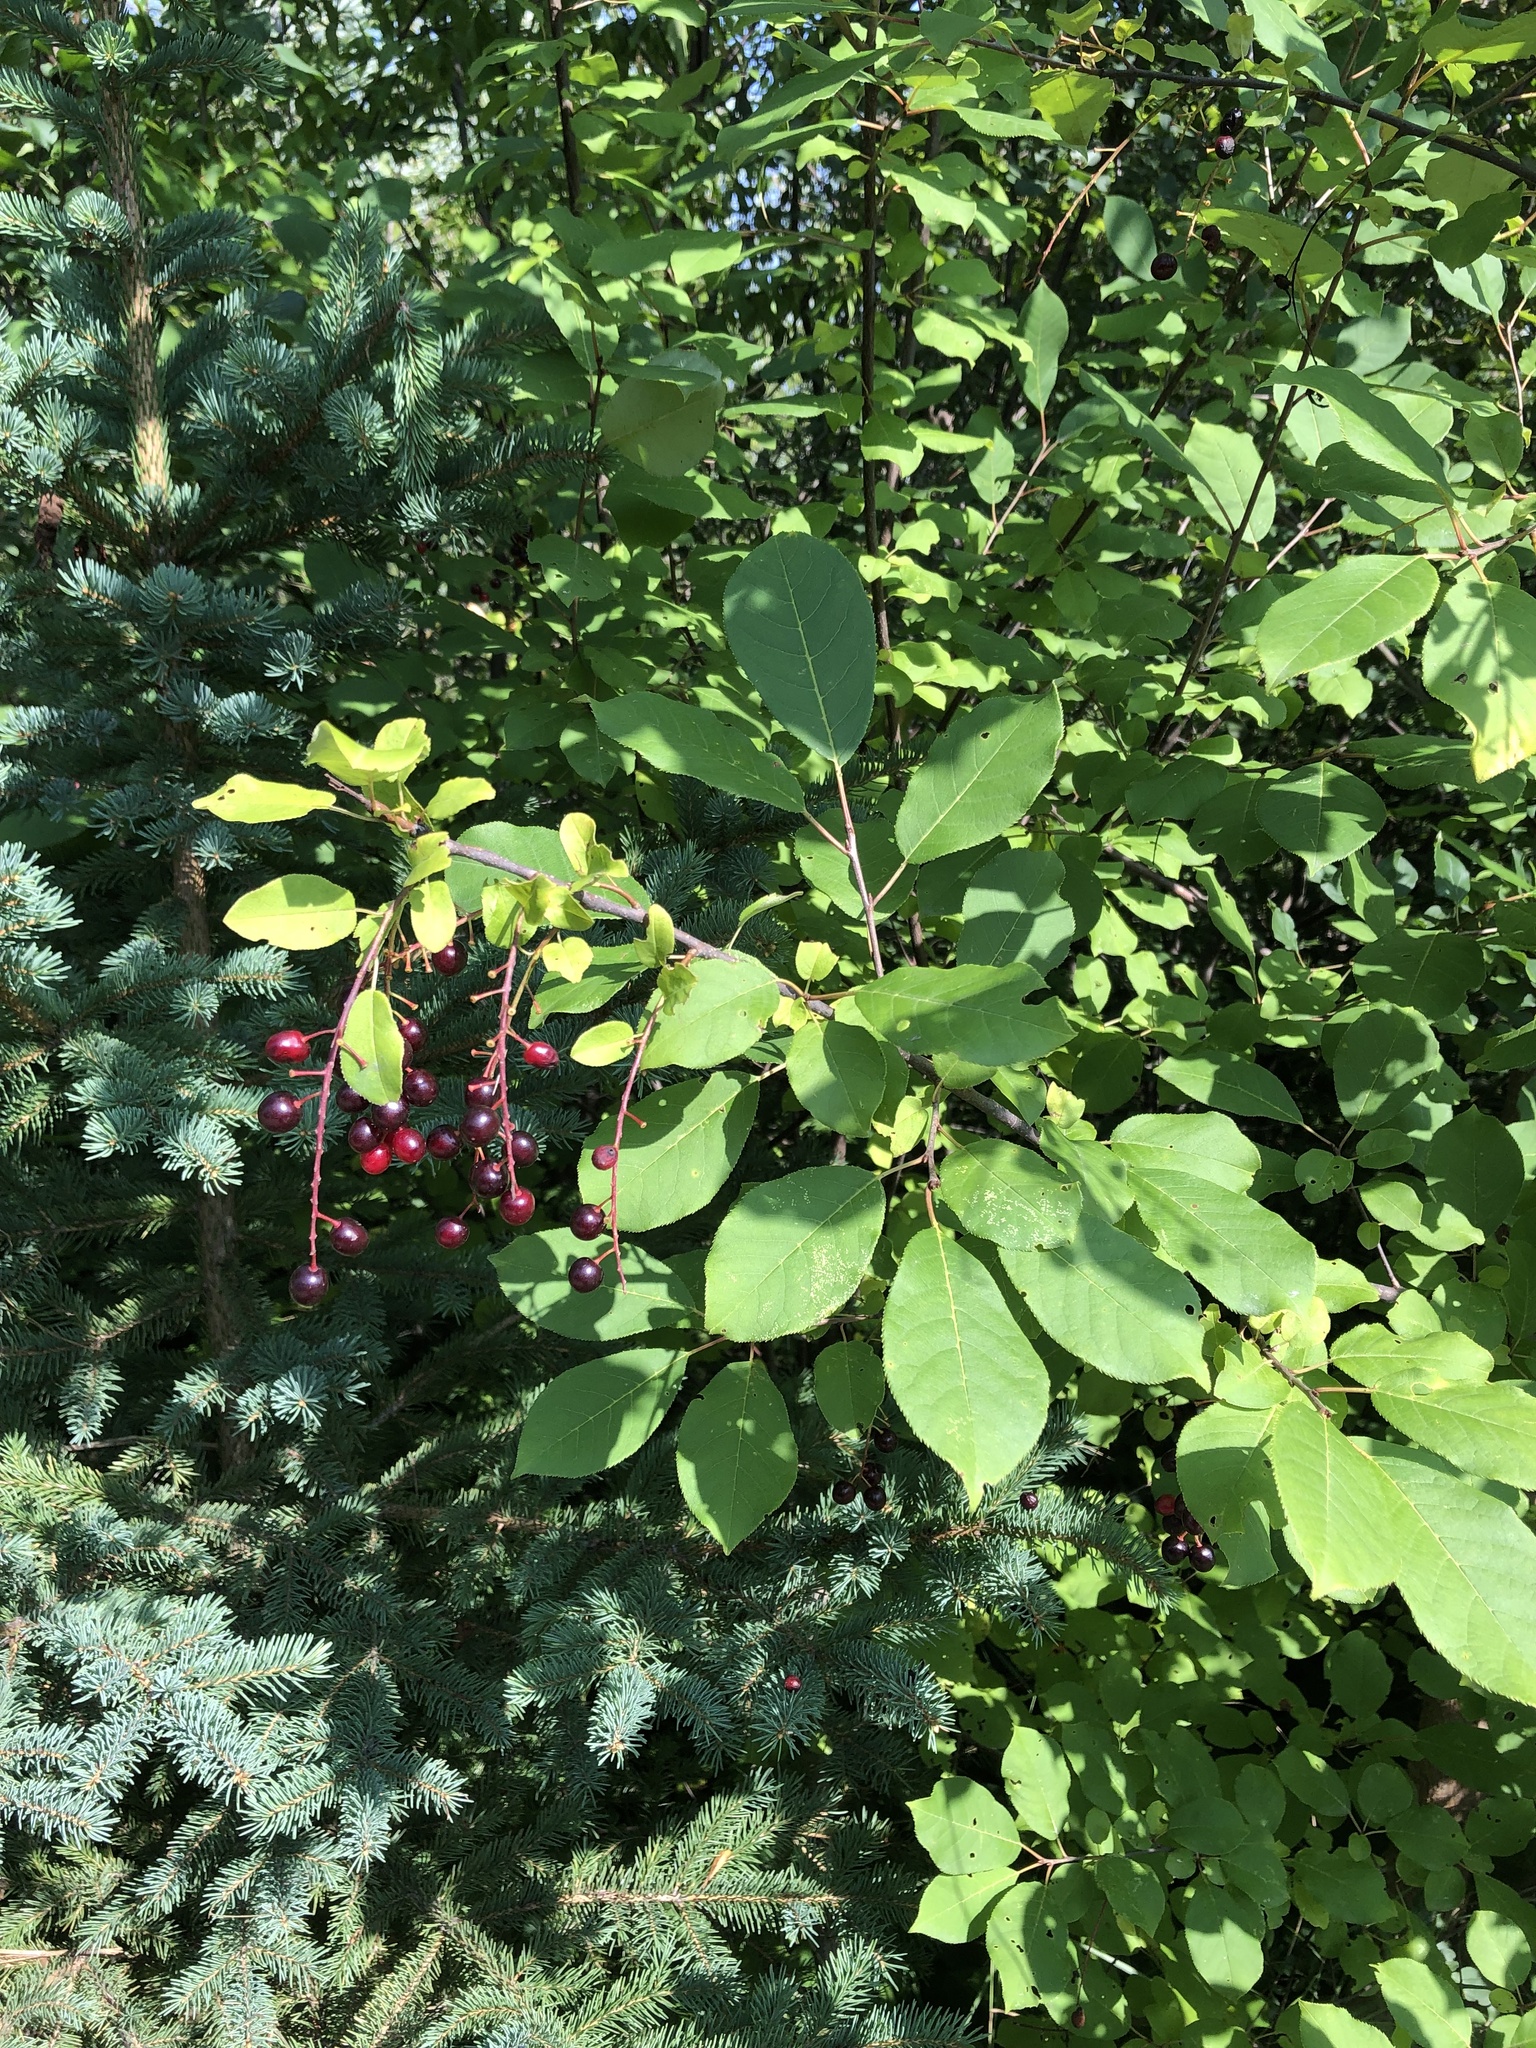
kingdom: Plantae
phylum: Tracheophyta
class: Magnoliopsida
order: Rosales
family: Rosaceae
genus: Prunus
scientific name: Prunus virginiana
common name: Chokecherry
